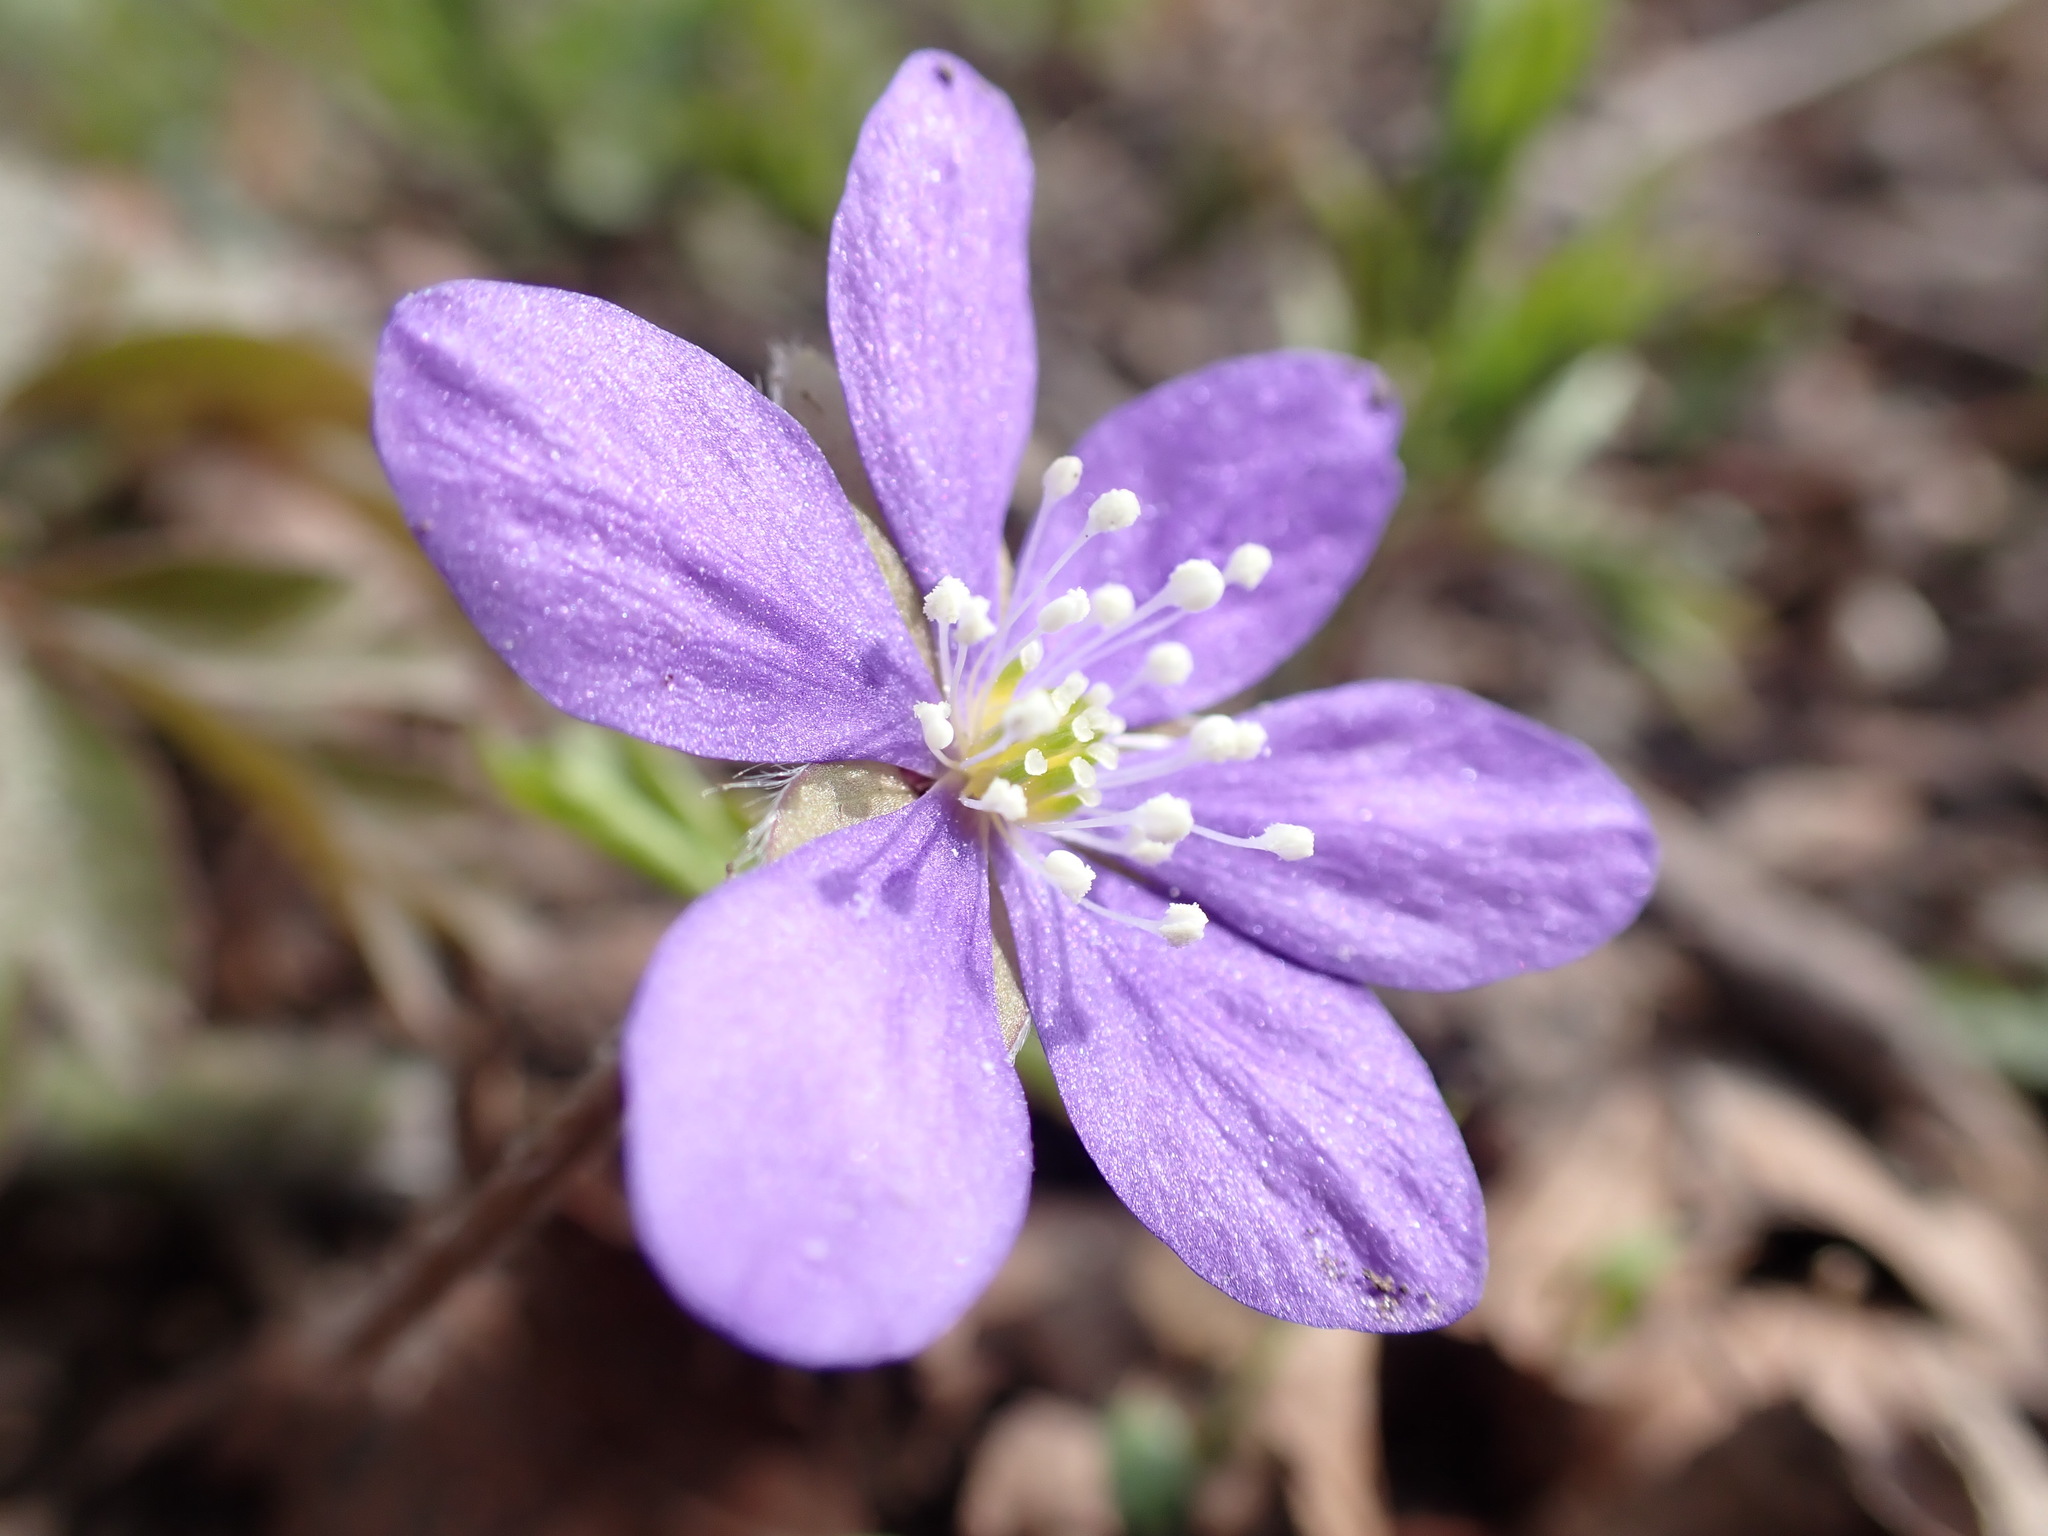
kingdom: Plantae
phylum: Tracheophyta
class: Magnoliopsida
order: Ranunculales
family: Ranunculaceae
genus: Hepatica
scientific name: Hepatica nobilis
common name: Liverleaf
